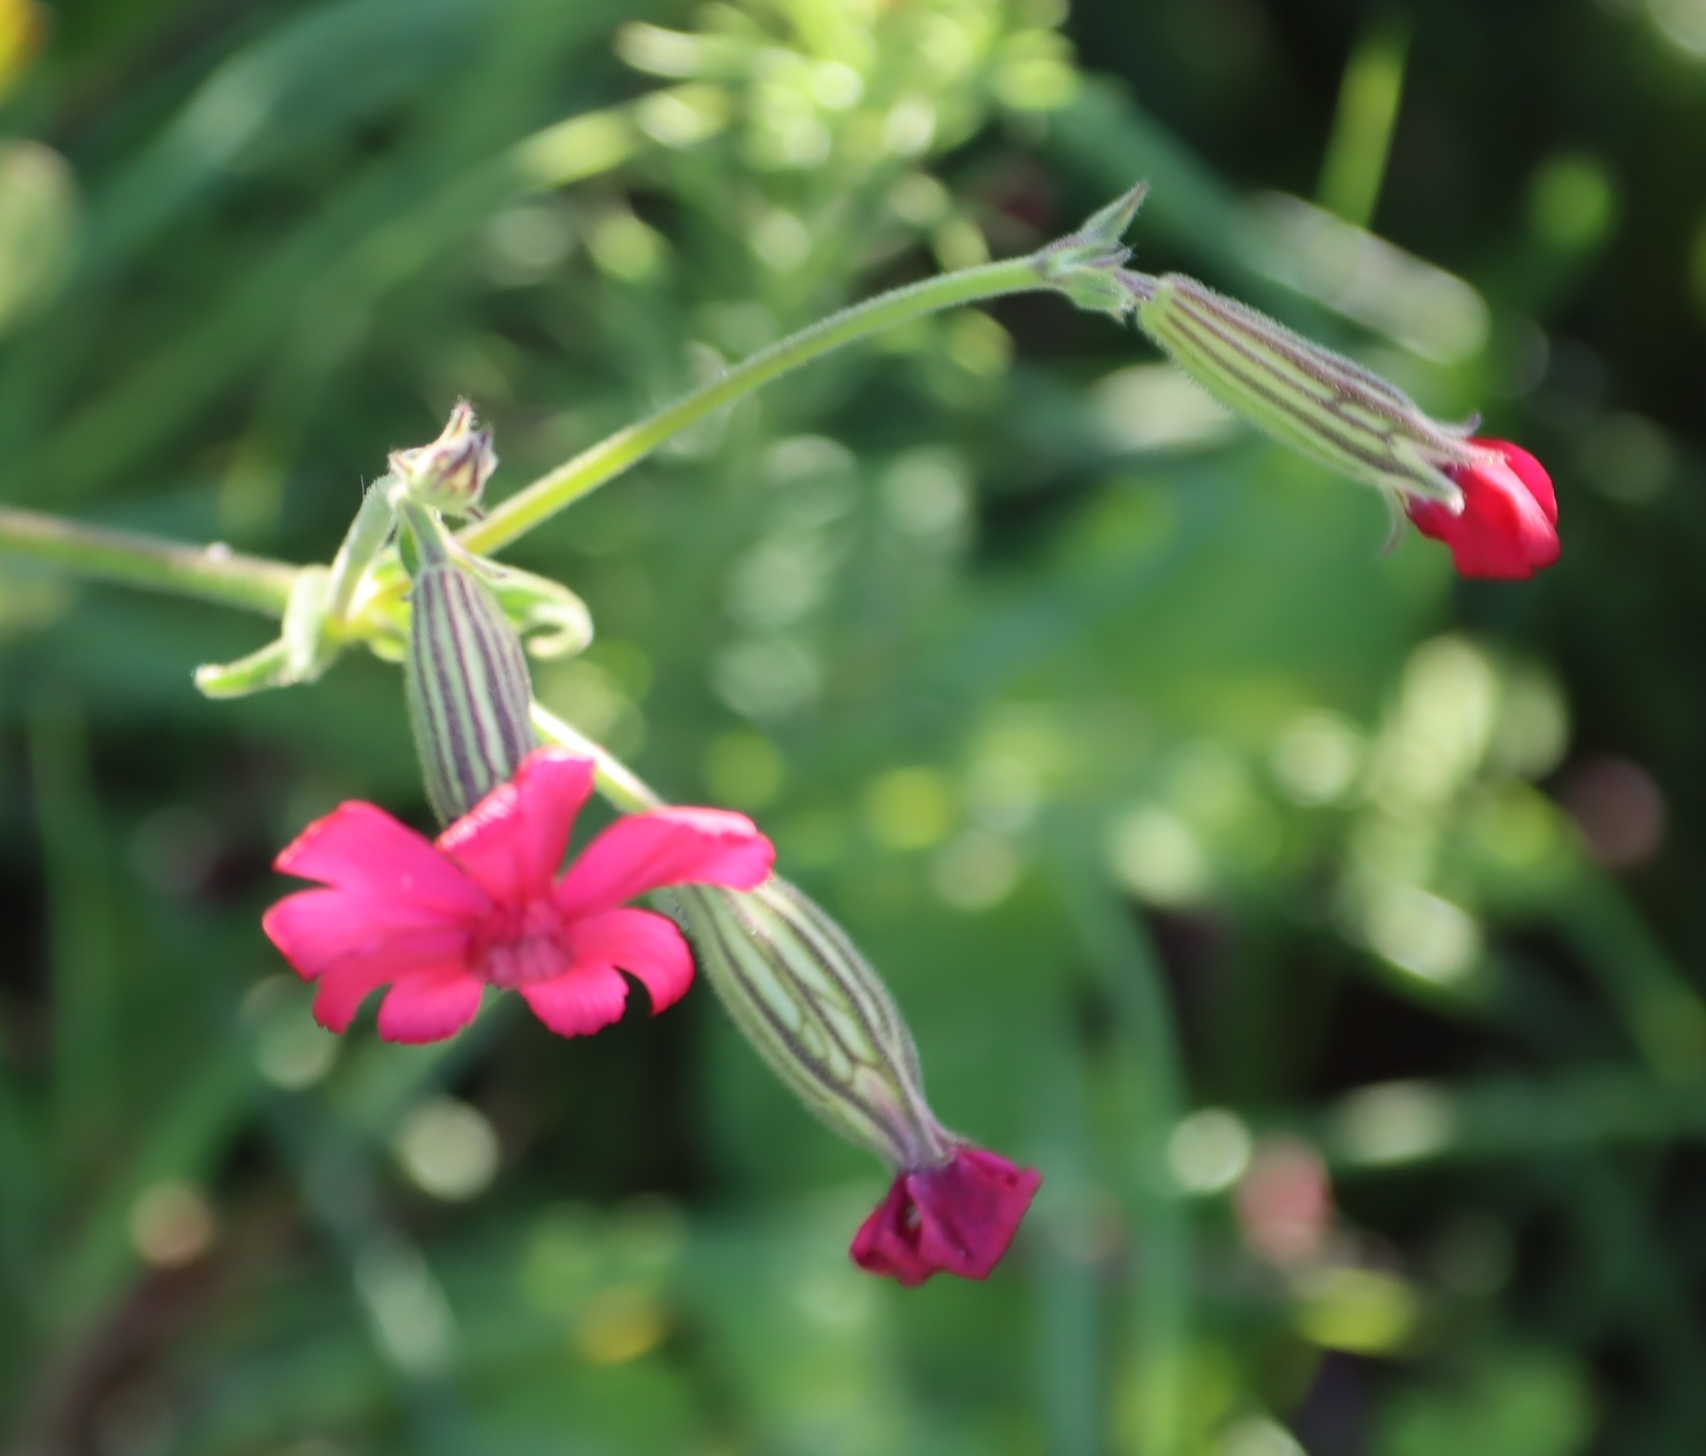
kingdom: Plantae
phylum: Tracheophyta
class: Magnoliopsida
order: Caryophyllales
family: Caryophyllaceae
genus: Silene
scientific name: Silene ornata
